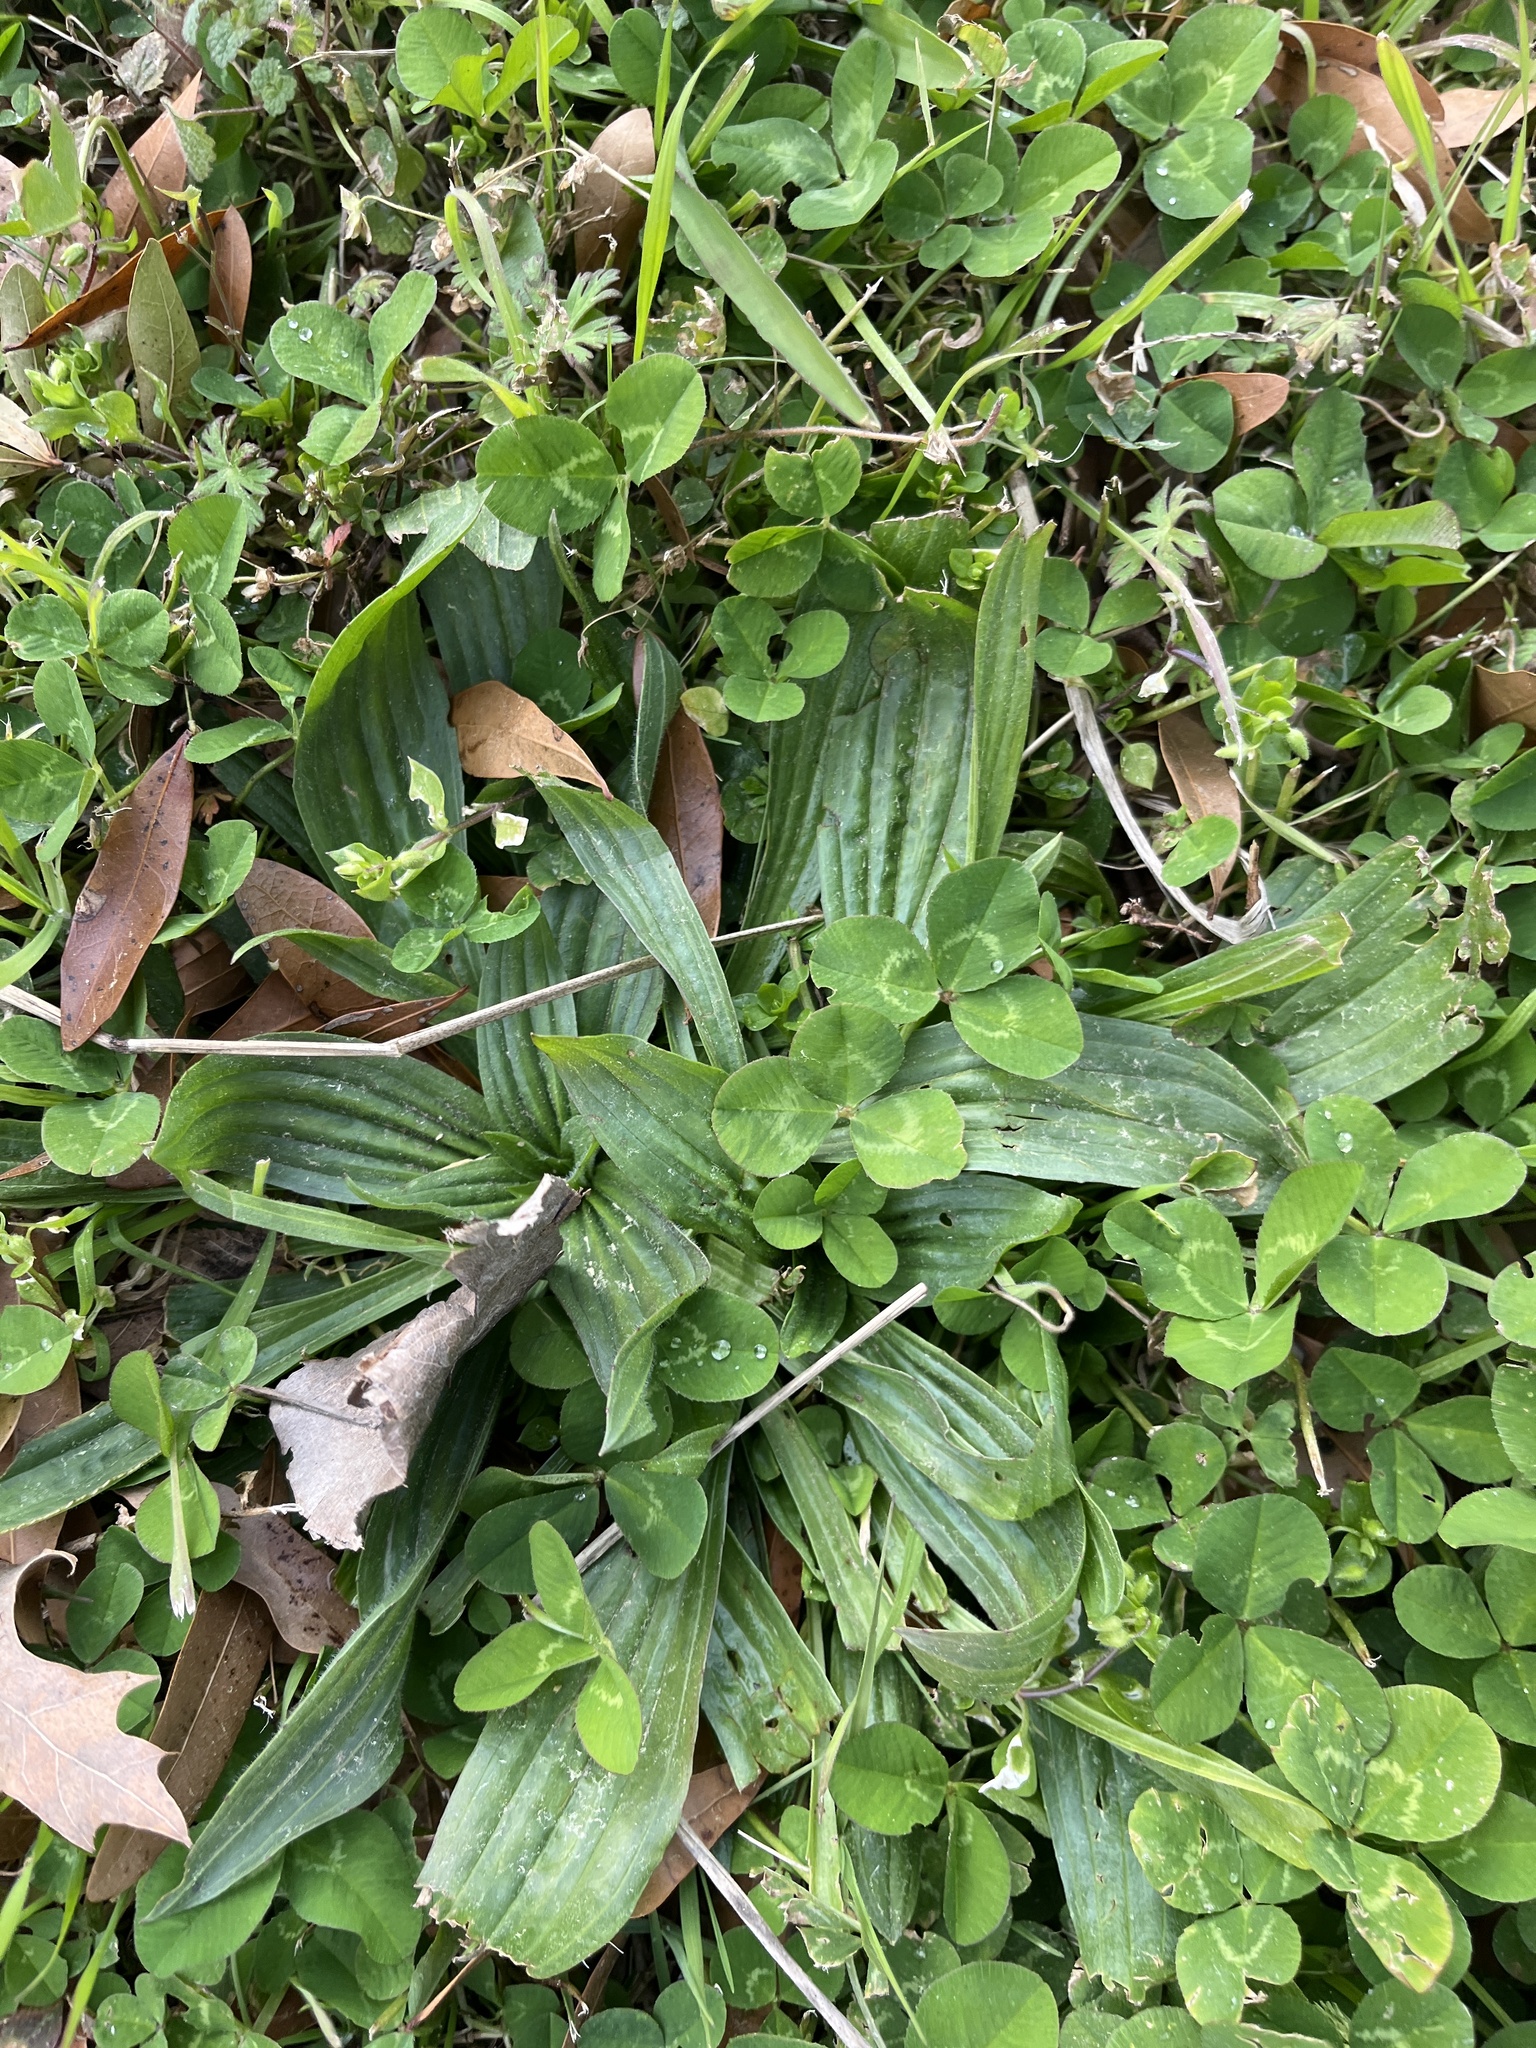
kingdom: Plantae
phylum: Tracheophyta
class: Magnoliopsida
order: Lamiales
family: Plantaginaceae
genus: Plantago
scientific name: Plantago lanceolata
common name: Ribwort plantain
